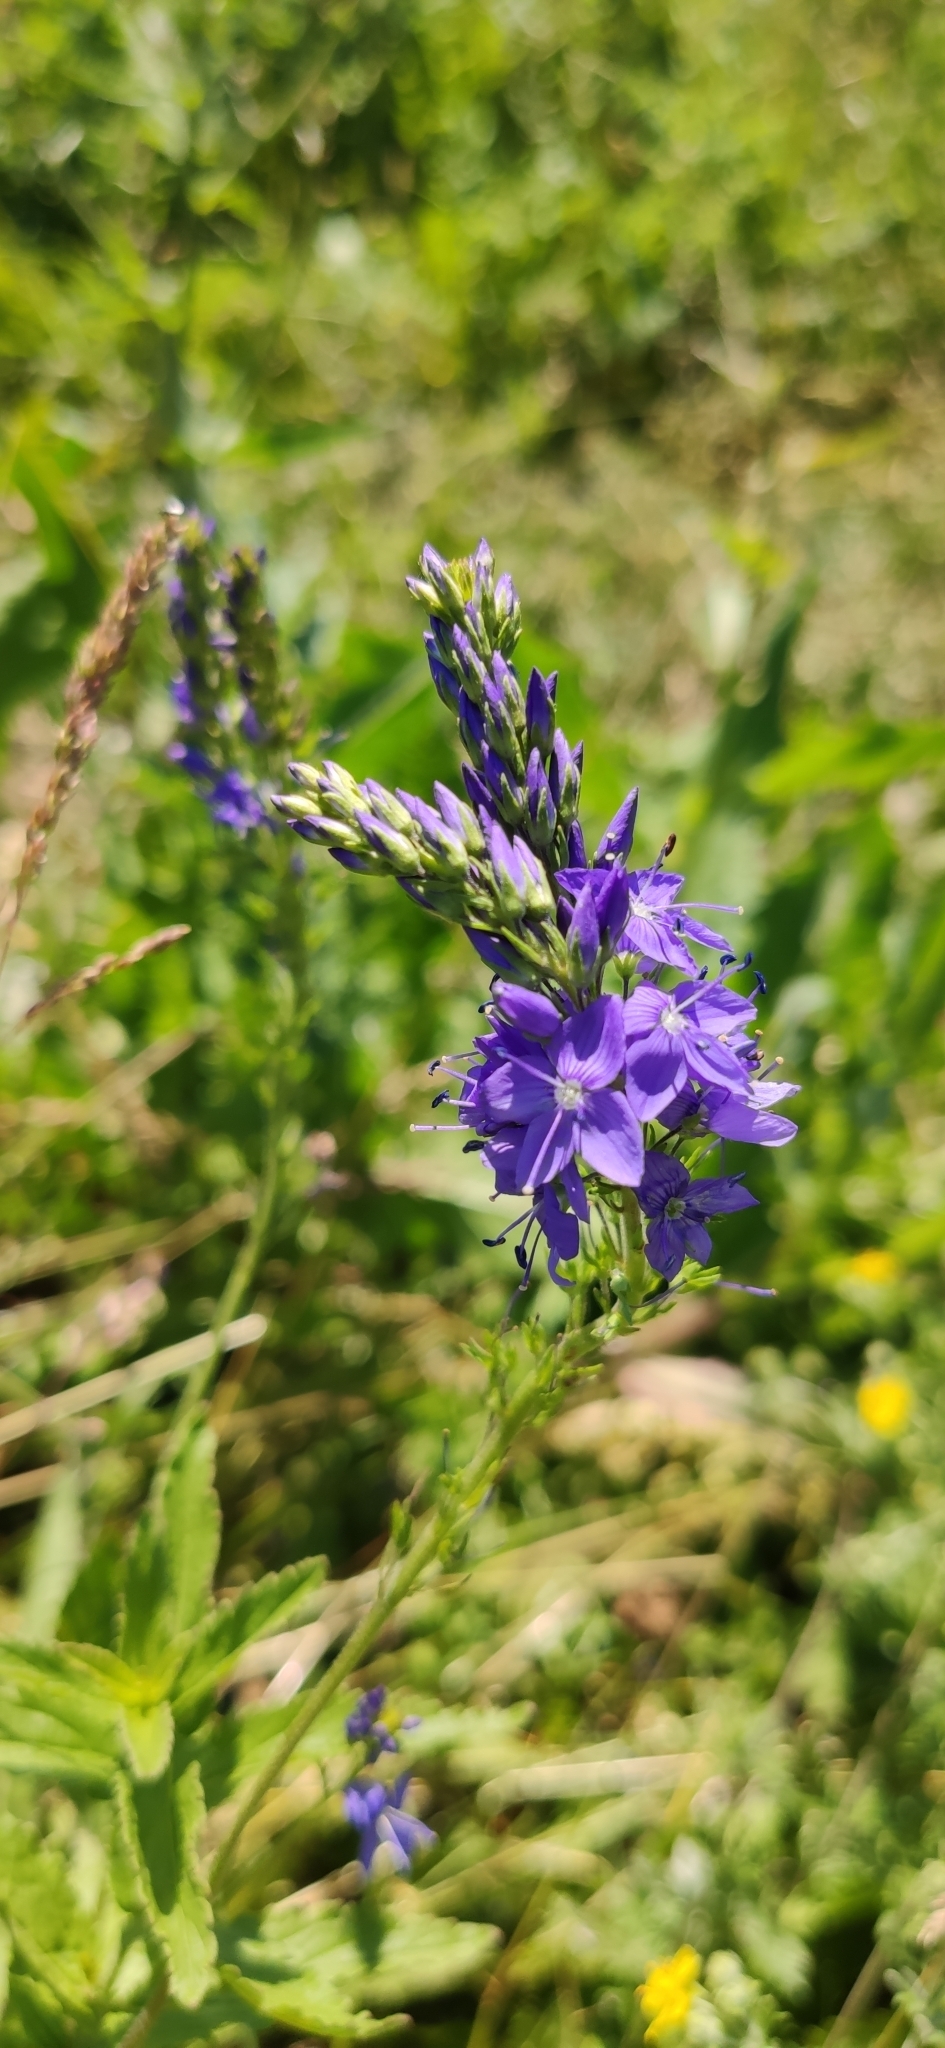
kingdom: Plantae
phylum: Tracheophyta
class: Magnoliopsida
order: Lamiales
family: Plantaginaceae
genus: Veronica
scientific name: Veronica teucrium
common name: Large speedwell
